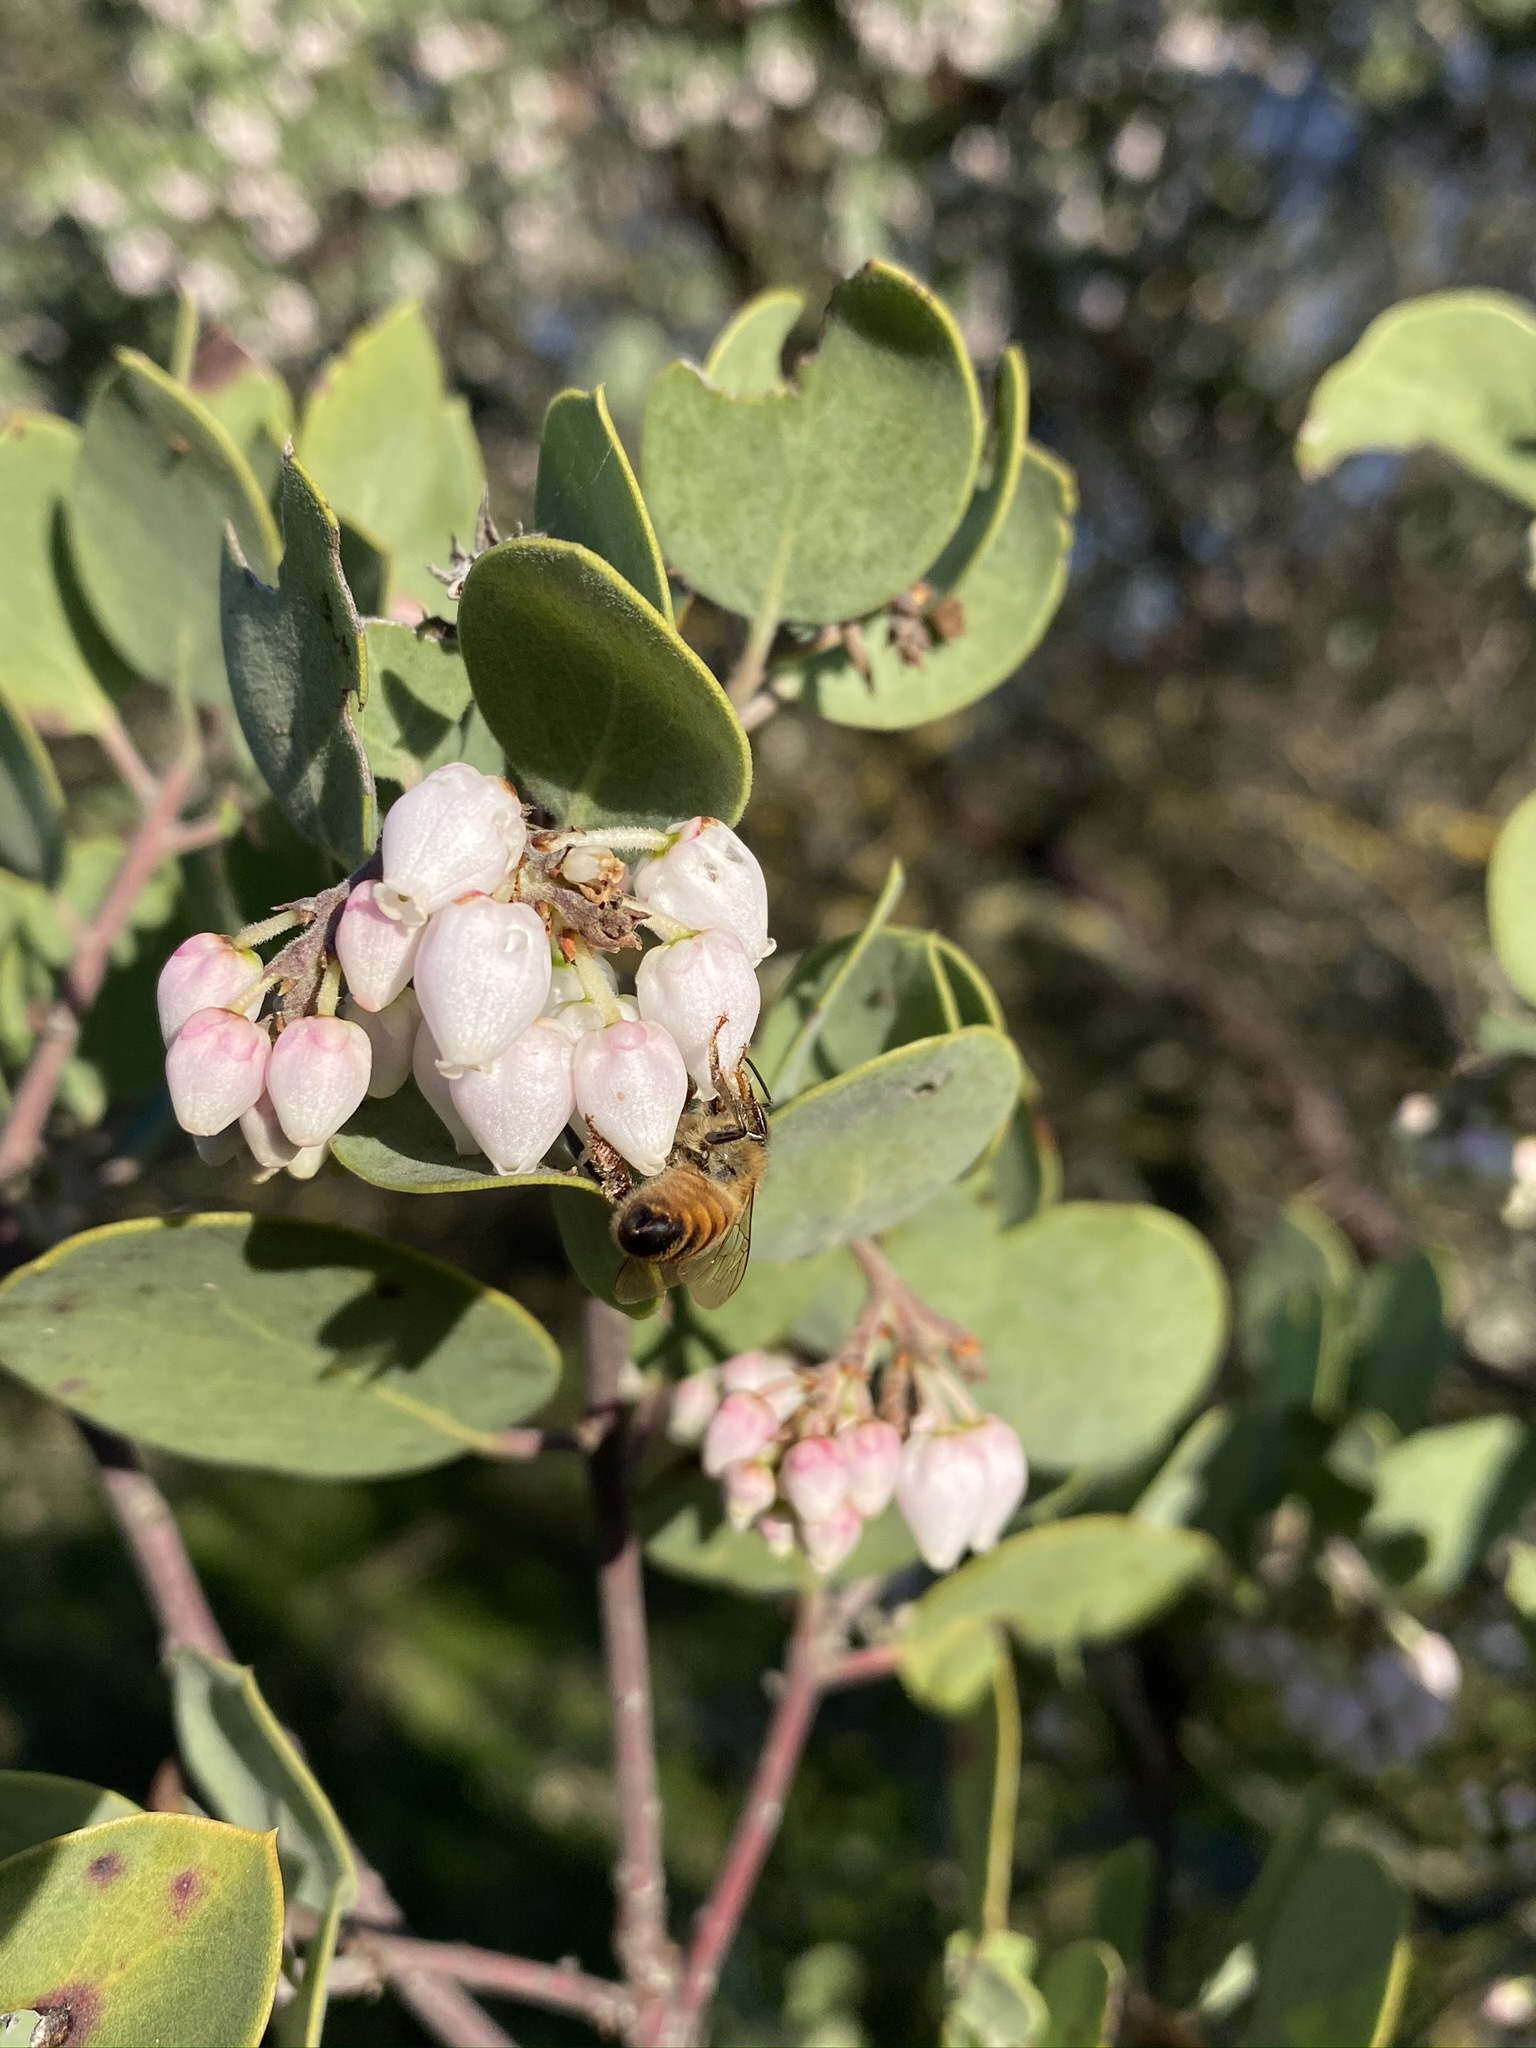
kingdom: Plantae
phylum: Tracheophyta
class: Magnoliopsida
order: Ericales
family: Ericaceae
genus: Arctostaphylos
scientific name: Arctostaphylos manzanita
